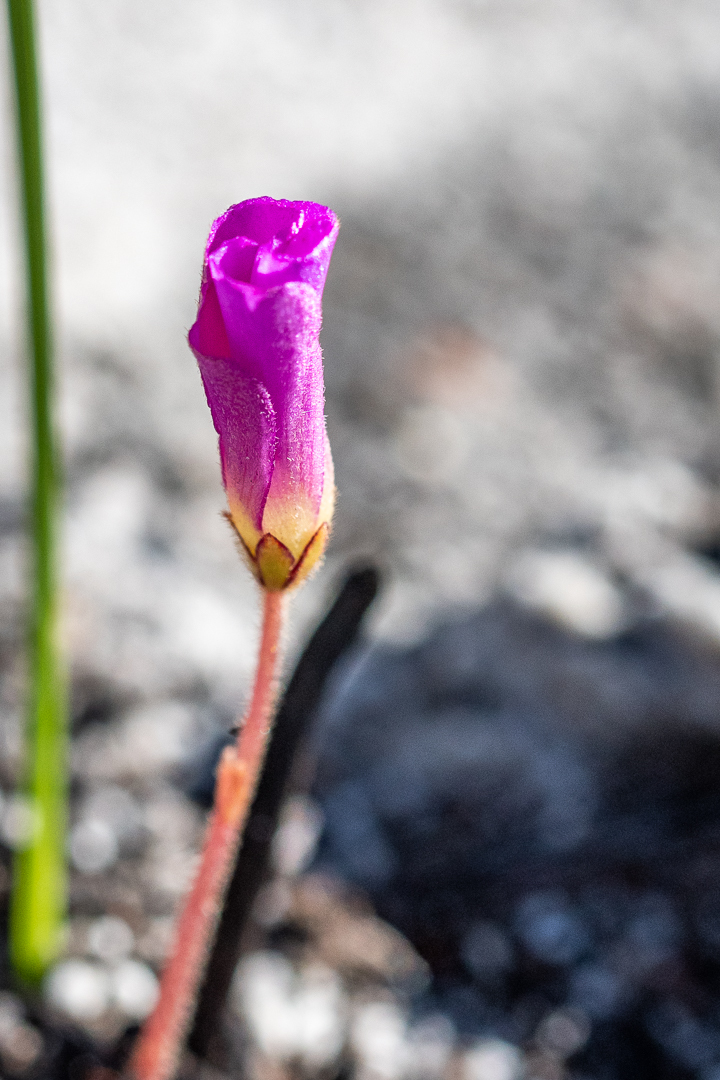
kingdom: Plantae
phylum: Tracheophyta
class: Magnoliopsida
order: Oxalidales
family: Oxalidaceae
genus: Oxalis
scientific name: Oxalis truncatula
